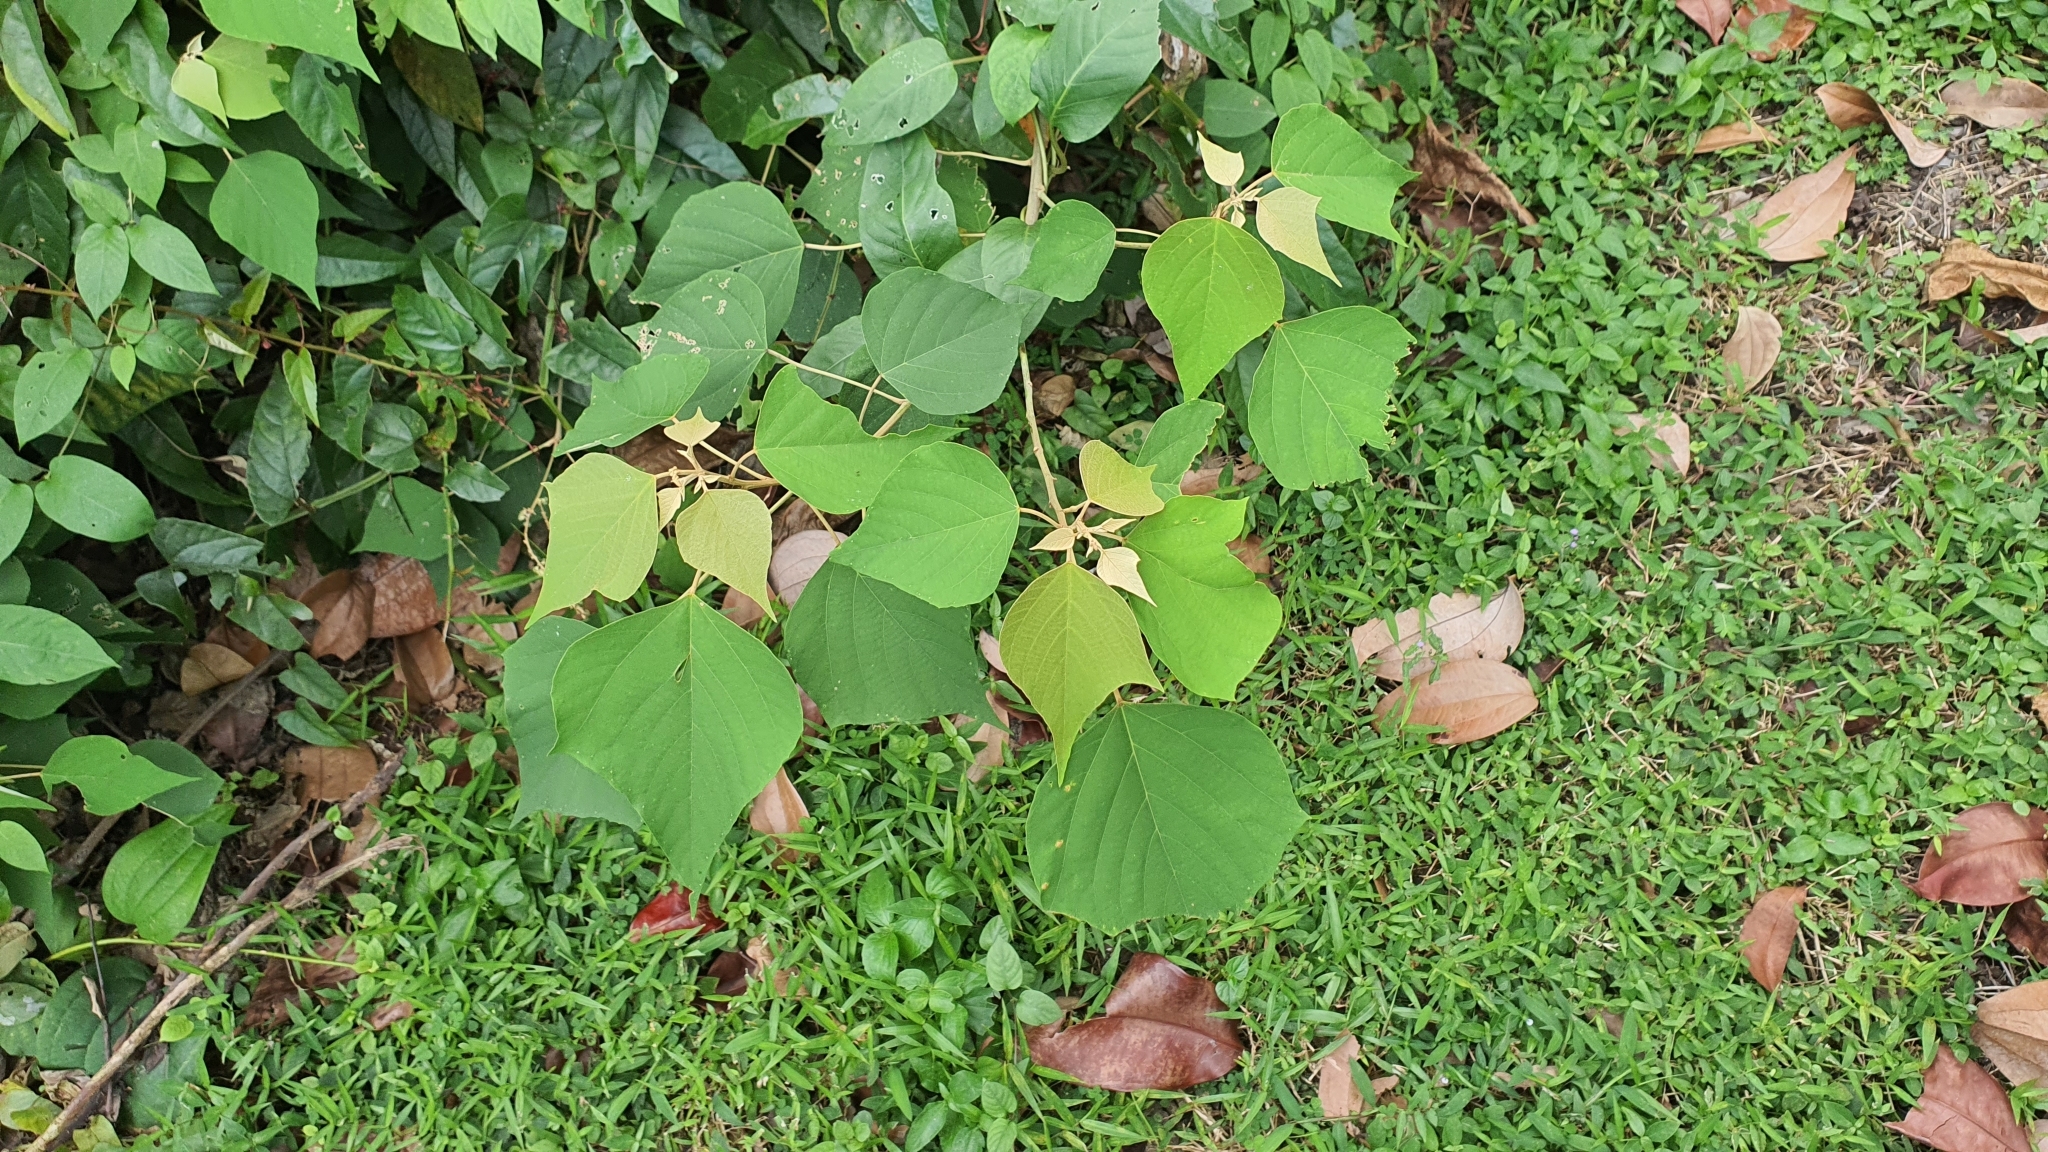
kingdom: Plantae
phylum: Tracheophyta
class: Magnoliopsida
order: Malpighiales
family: Euphorbiaceae
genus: Mallotus
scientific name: Mallotus paniculatus
